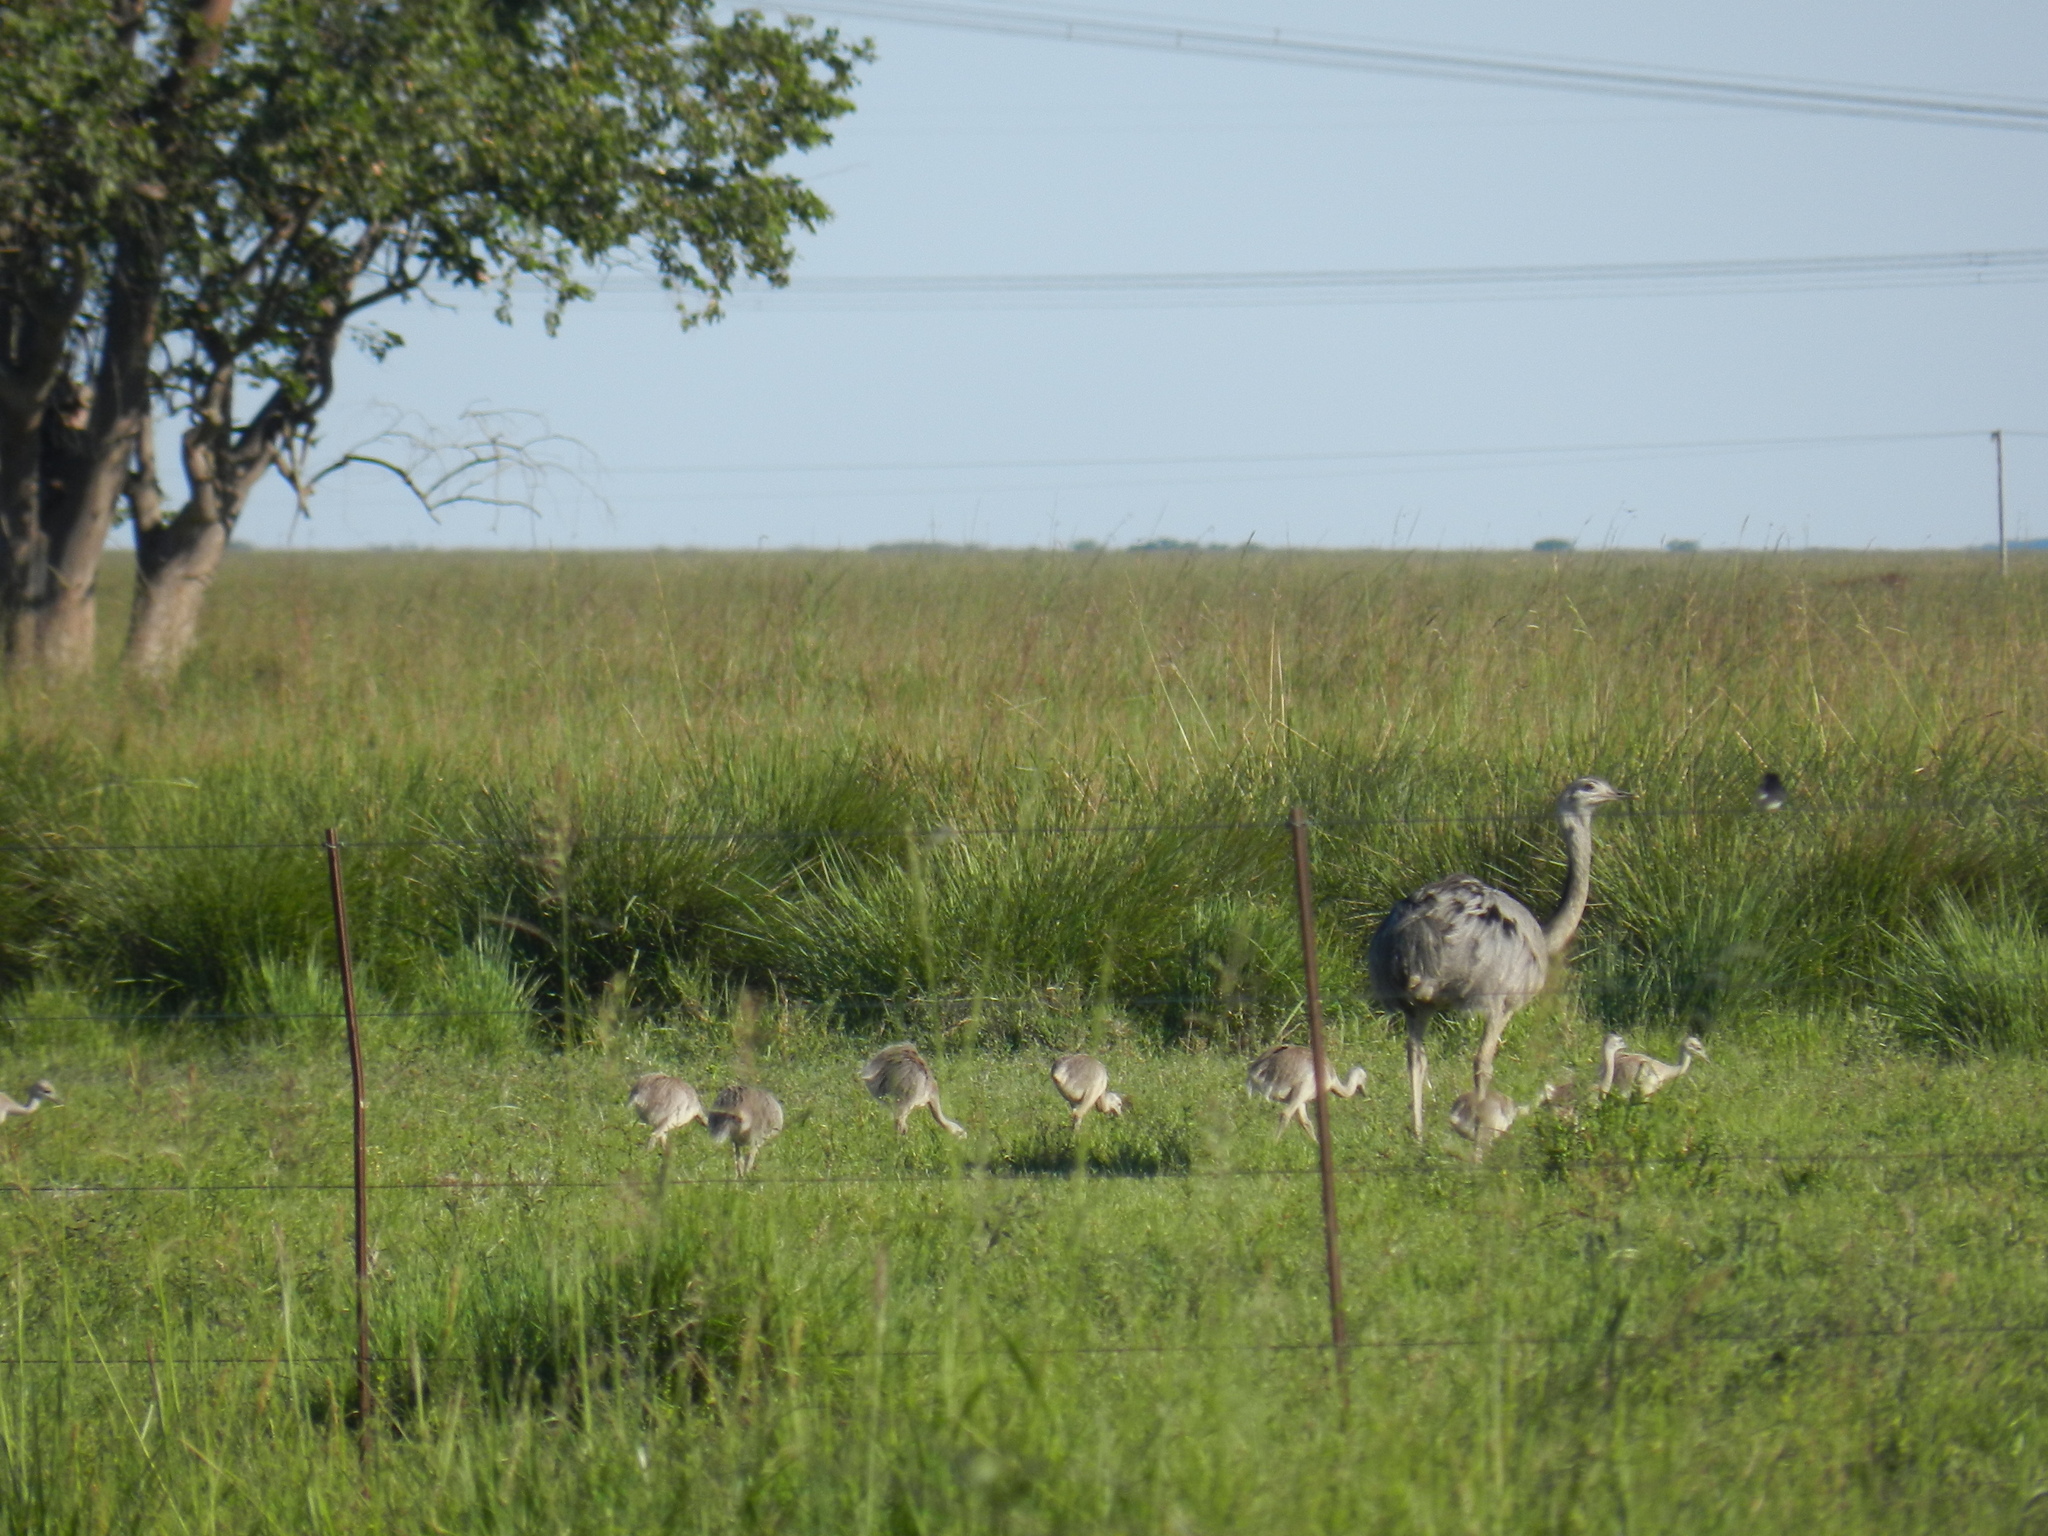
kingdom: Animalia
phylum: Chordata
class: Aves
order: Rheiformes
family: Rheidae
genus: Rhea
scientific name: Rhea americana
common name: Greater rhea
